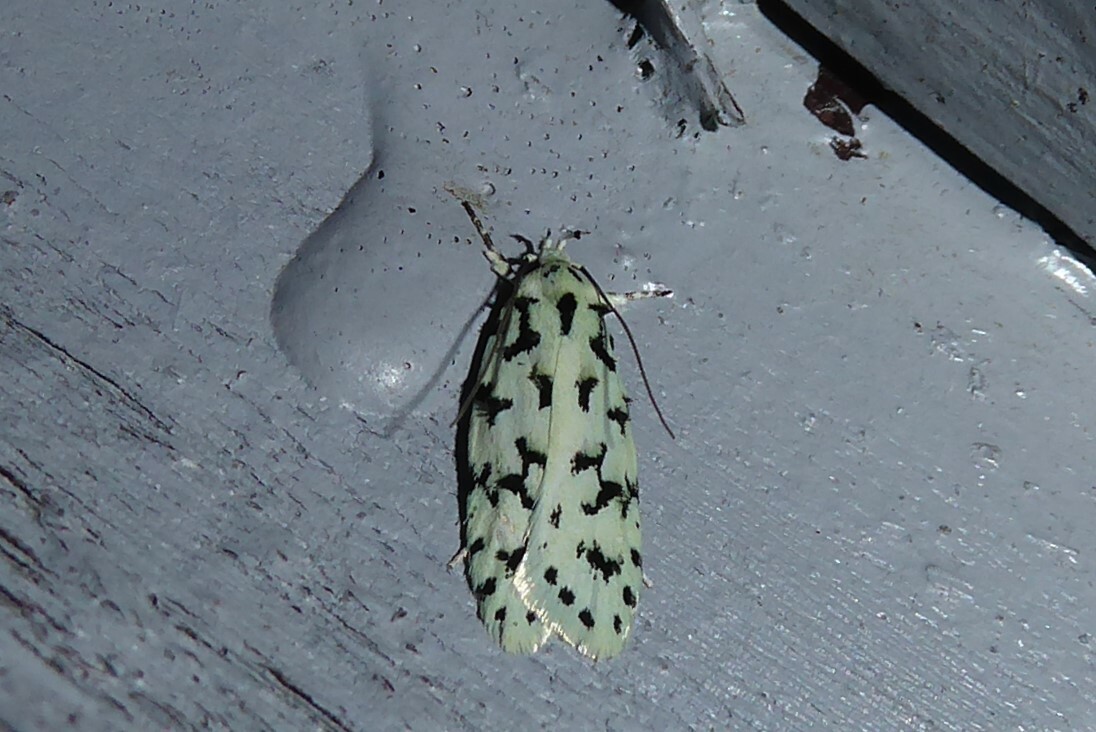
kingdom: Animalia
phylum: Arthropoda
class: Insecta
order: Lepidoptera
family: Oecophoridae
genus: Izatha
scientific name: Izatha huttoni
